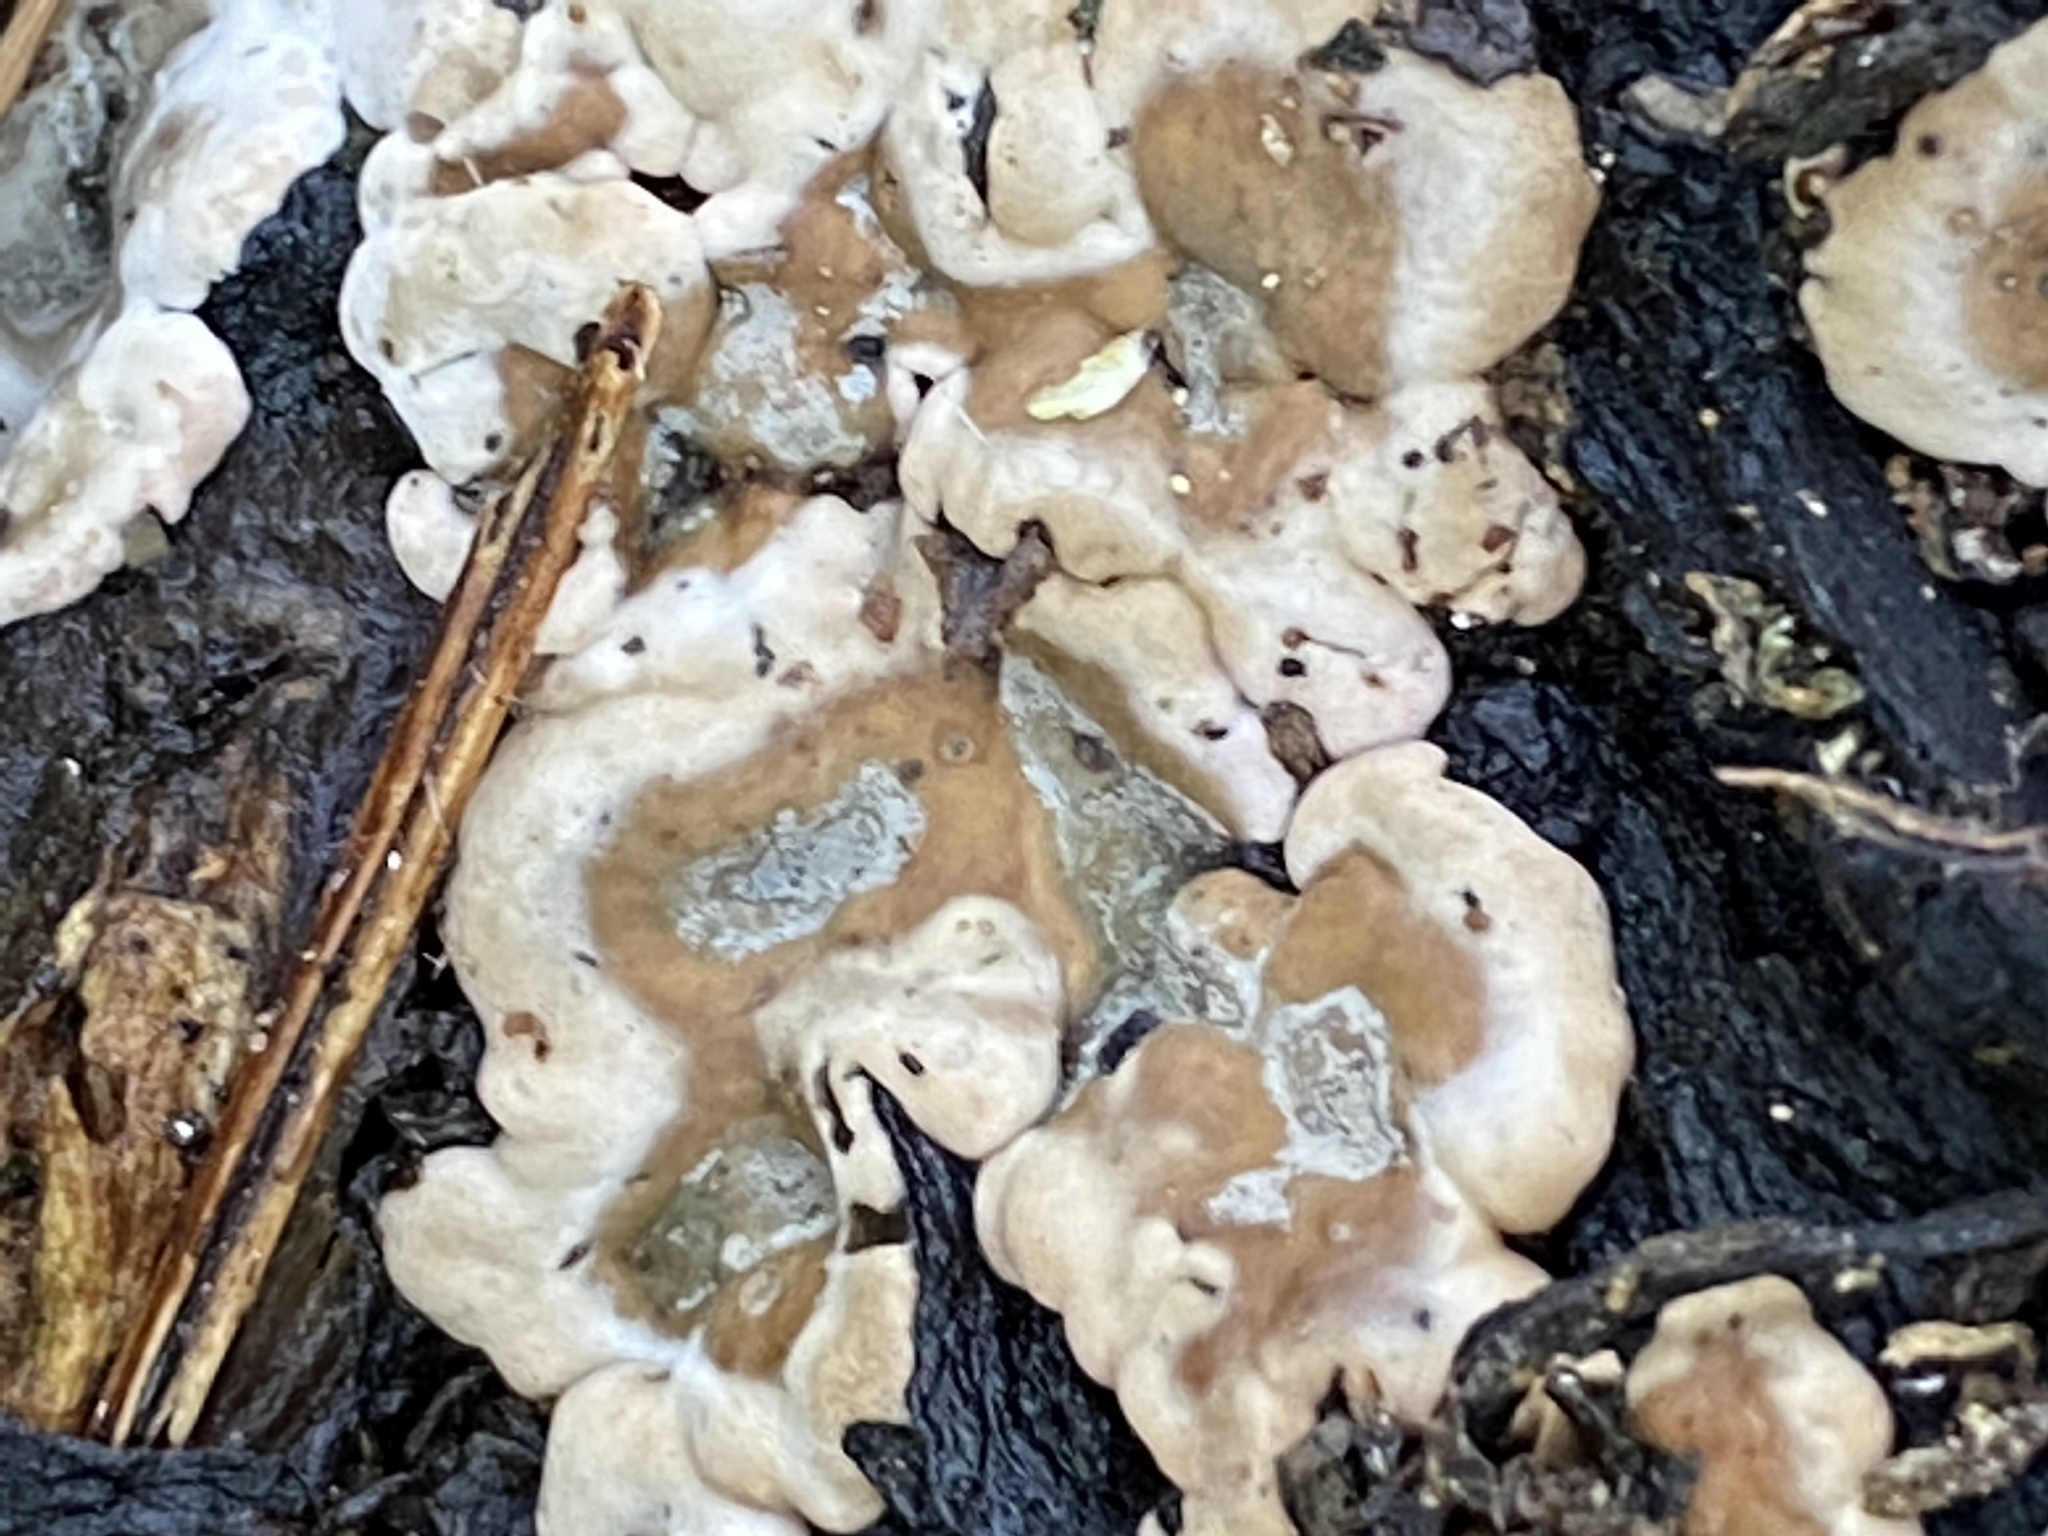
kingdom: Fungi
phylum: Ascomycota
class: Sordariomycetes
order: Xylariales
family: Xylariaceae
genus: Kretzschmaria
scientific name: Kretzschmaria deusta
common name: Brittle cinder
